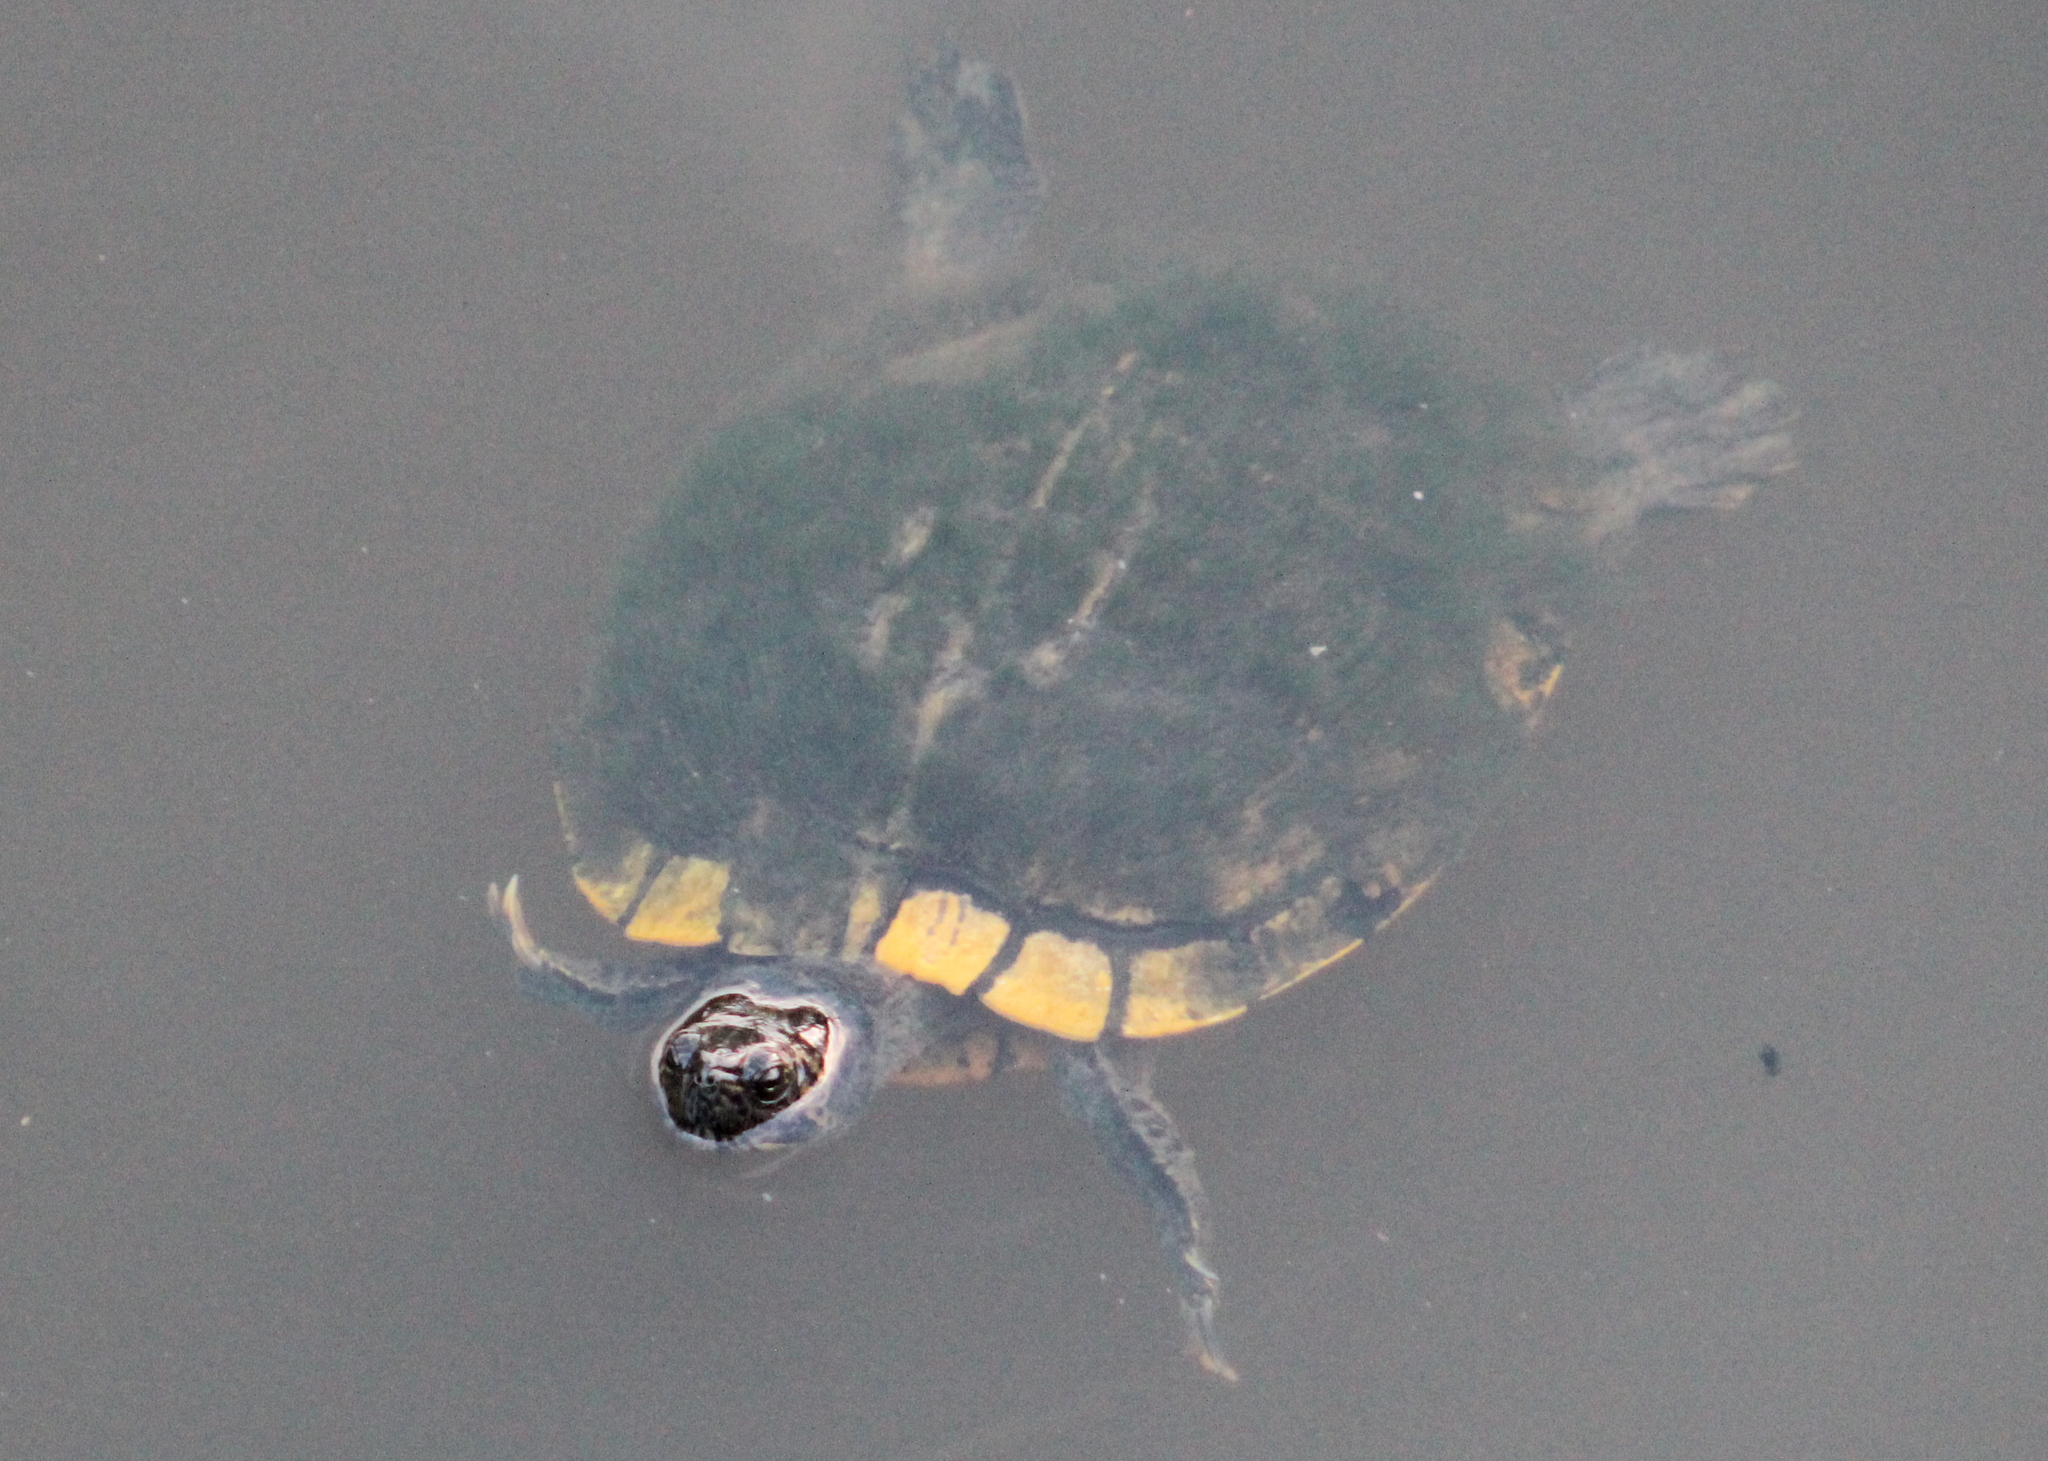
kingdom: Animalia
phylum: Chordata
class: Testudines
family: Emydidae
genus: Trachemys
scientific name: Trachemys scripta
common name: Slider
